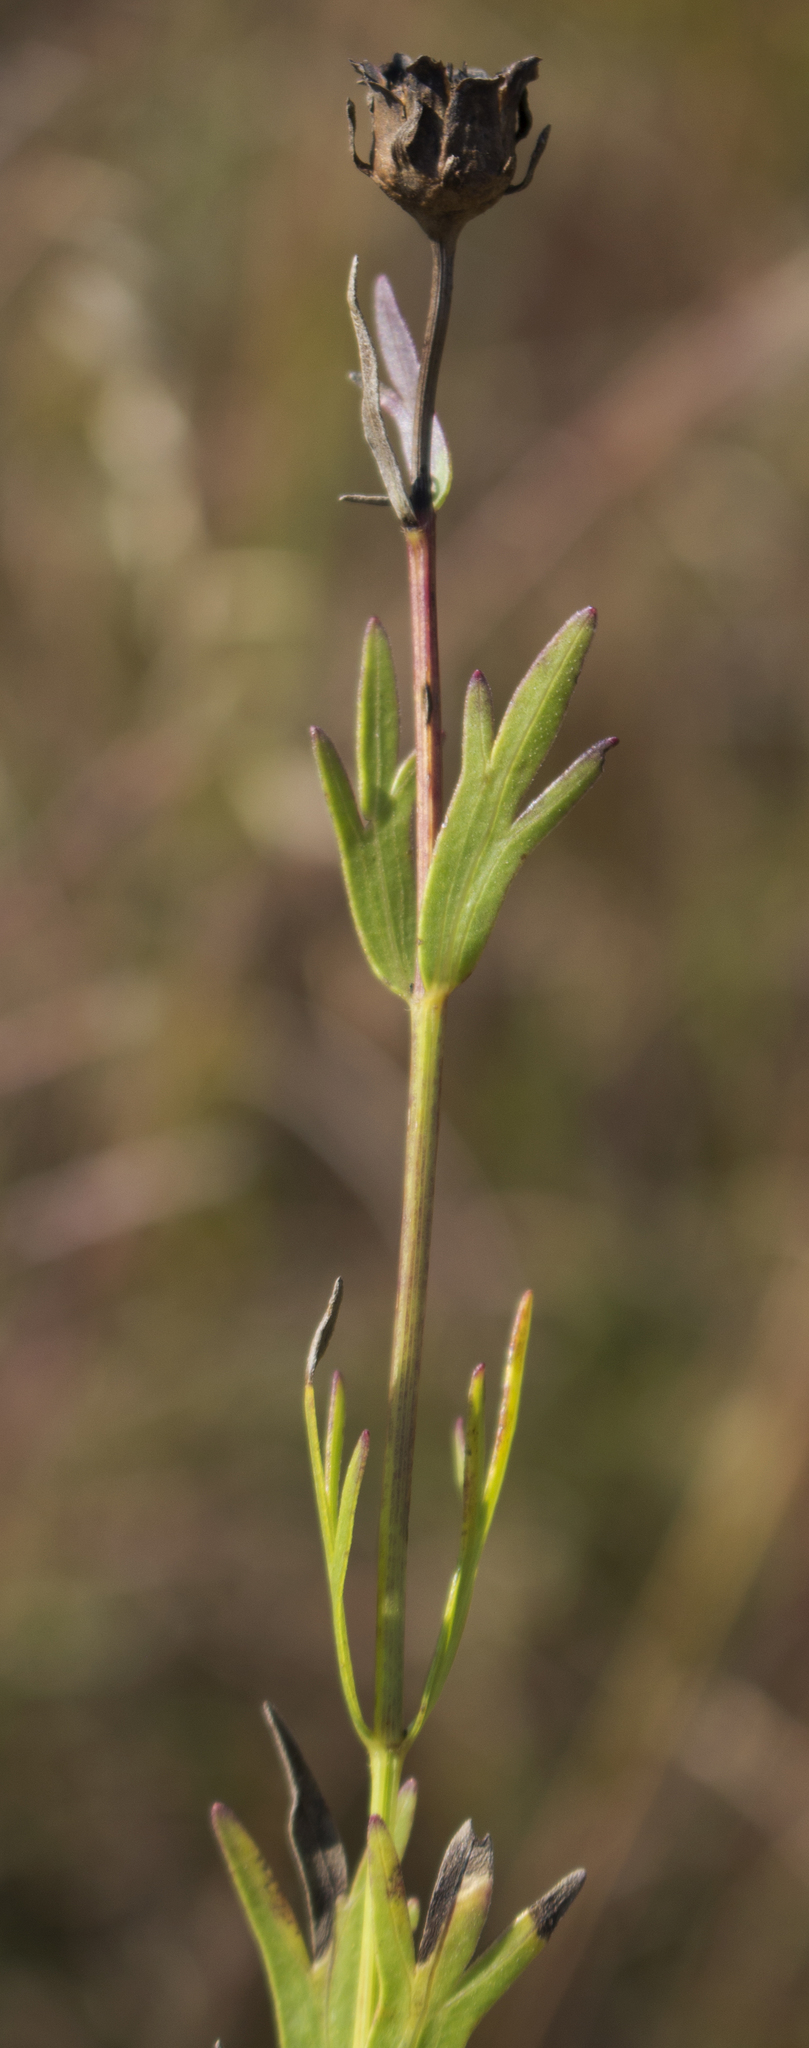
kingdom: Plantae
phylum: Tracheophyta
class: Magnoliopsida
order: Asterales
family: Asteraceae
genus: Coreopsis
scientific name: Coreopsis palmata
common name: Prairie coreopsis
